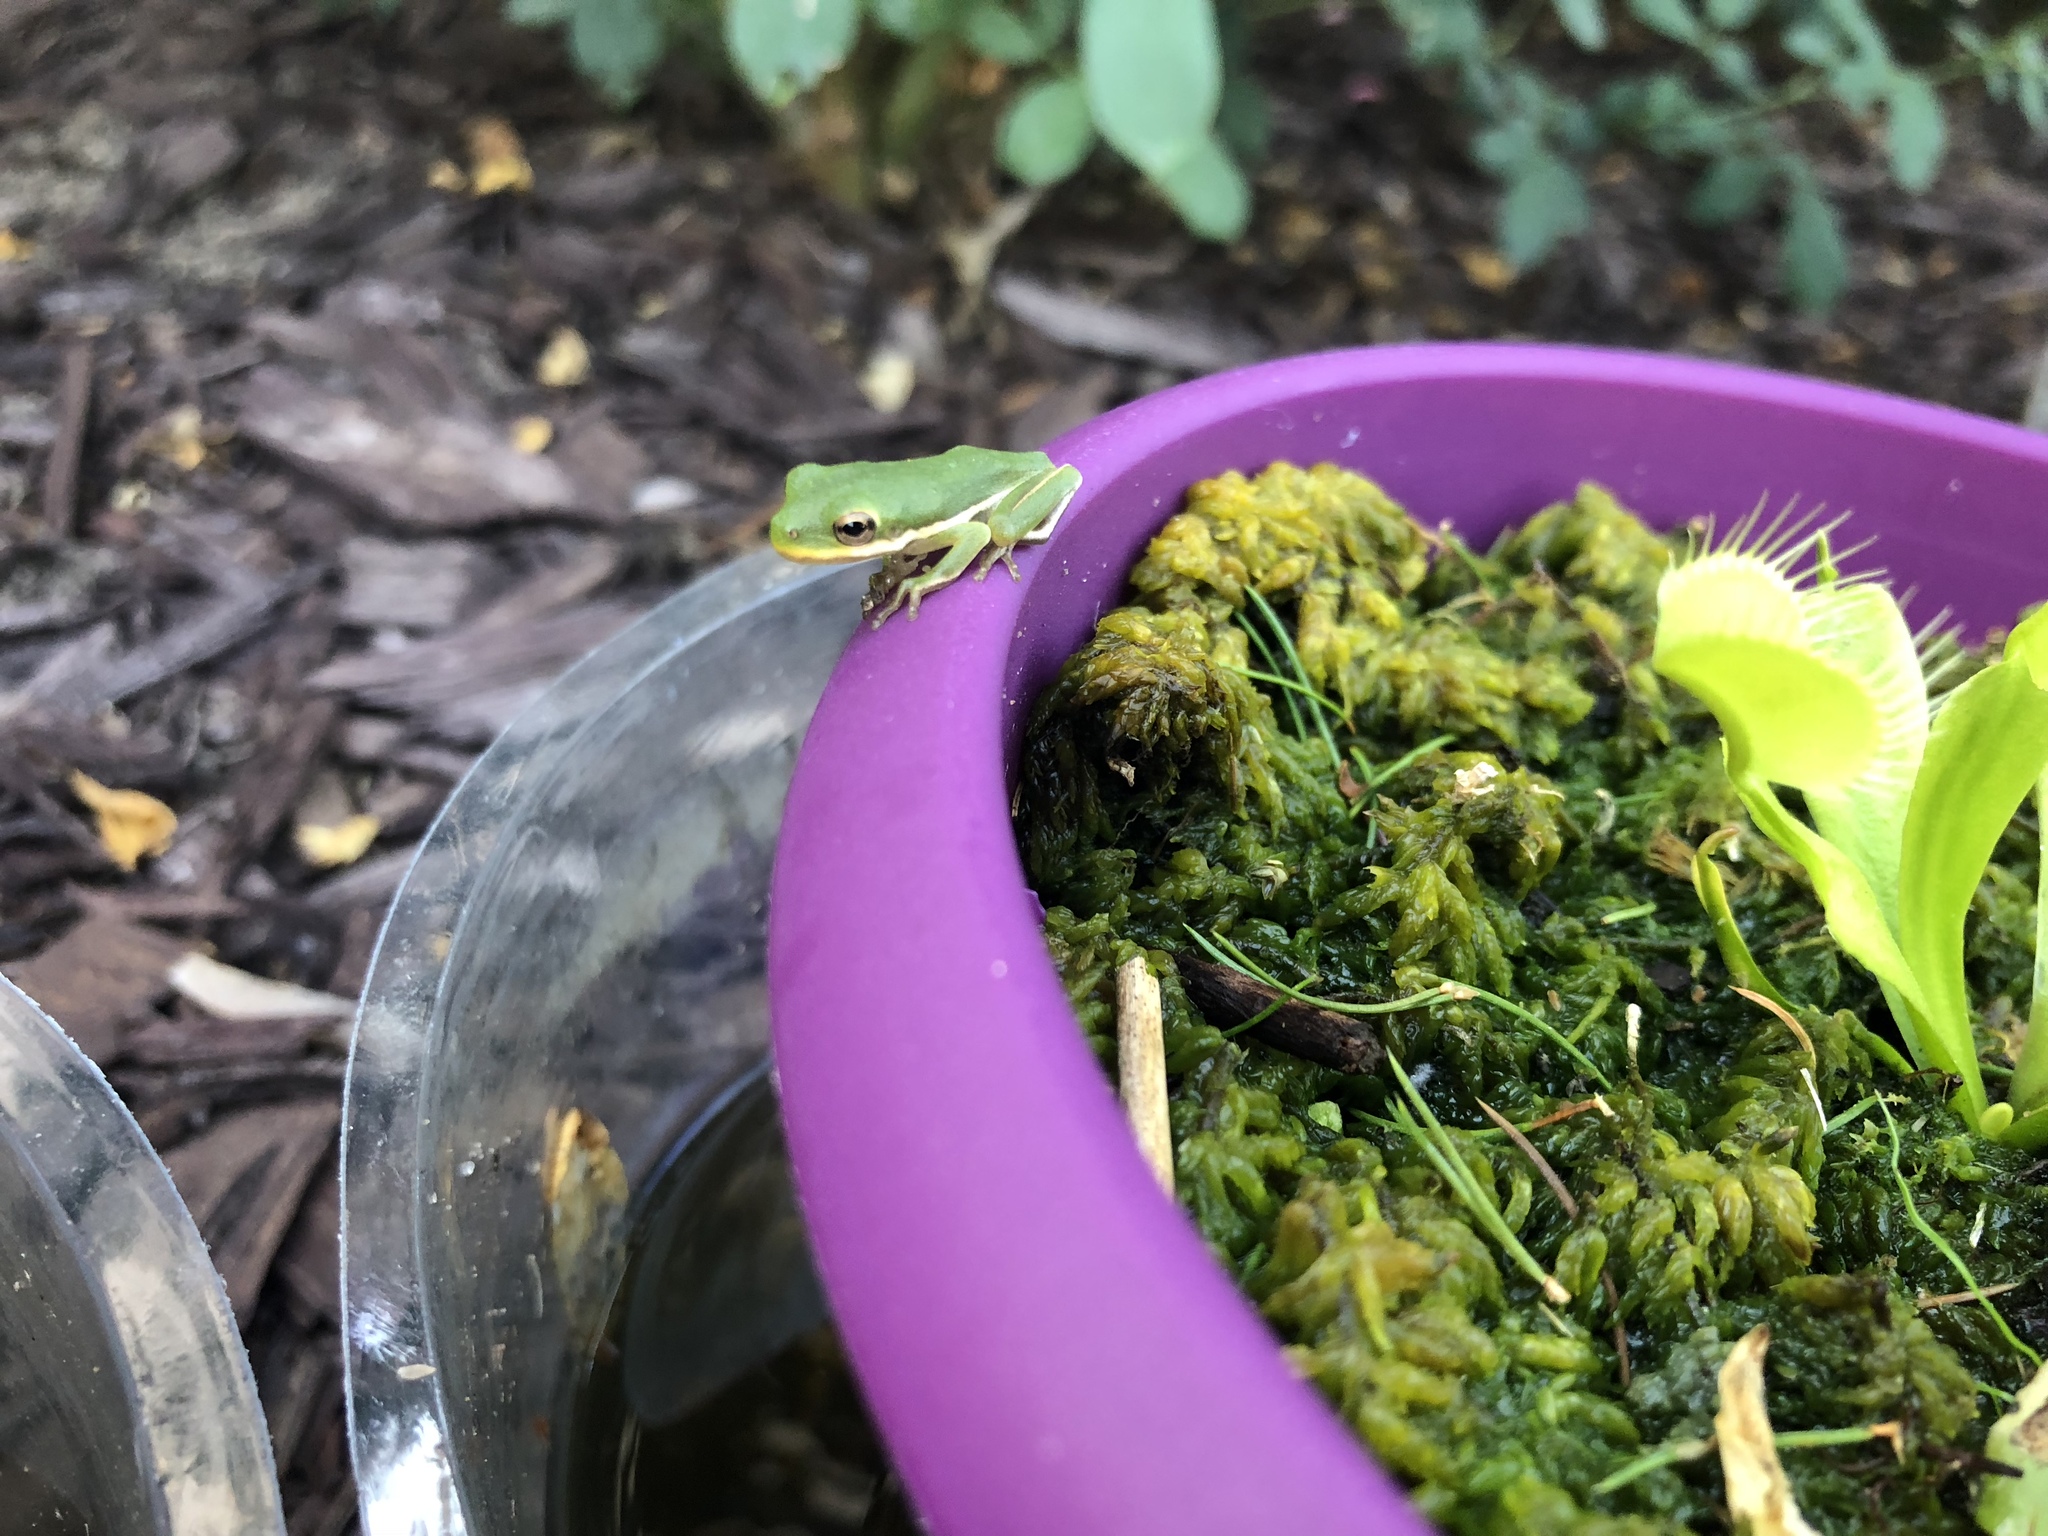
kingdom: Animalia
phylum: Chordata
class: Amphibia
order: Anura
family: Hylidae
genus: Dryophytes
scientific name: Dryophytes cinereus
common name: Green treefrog
